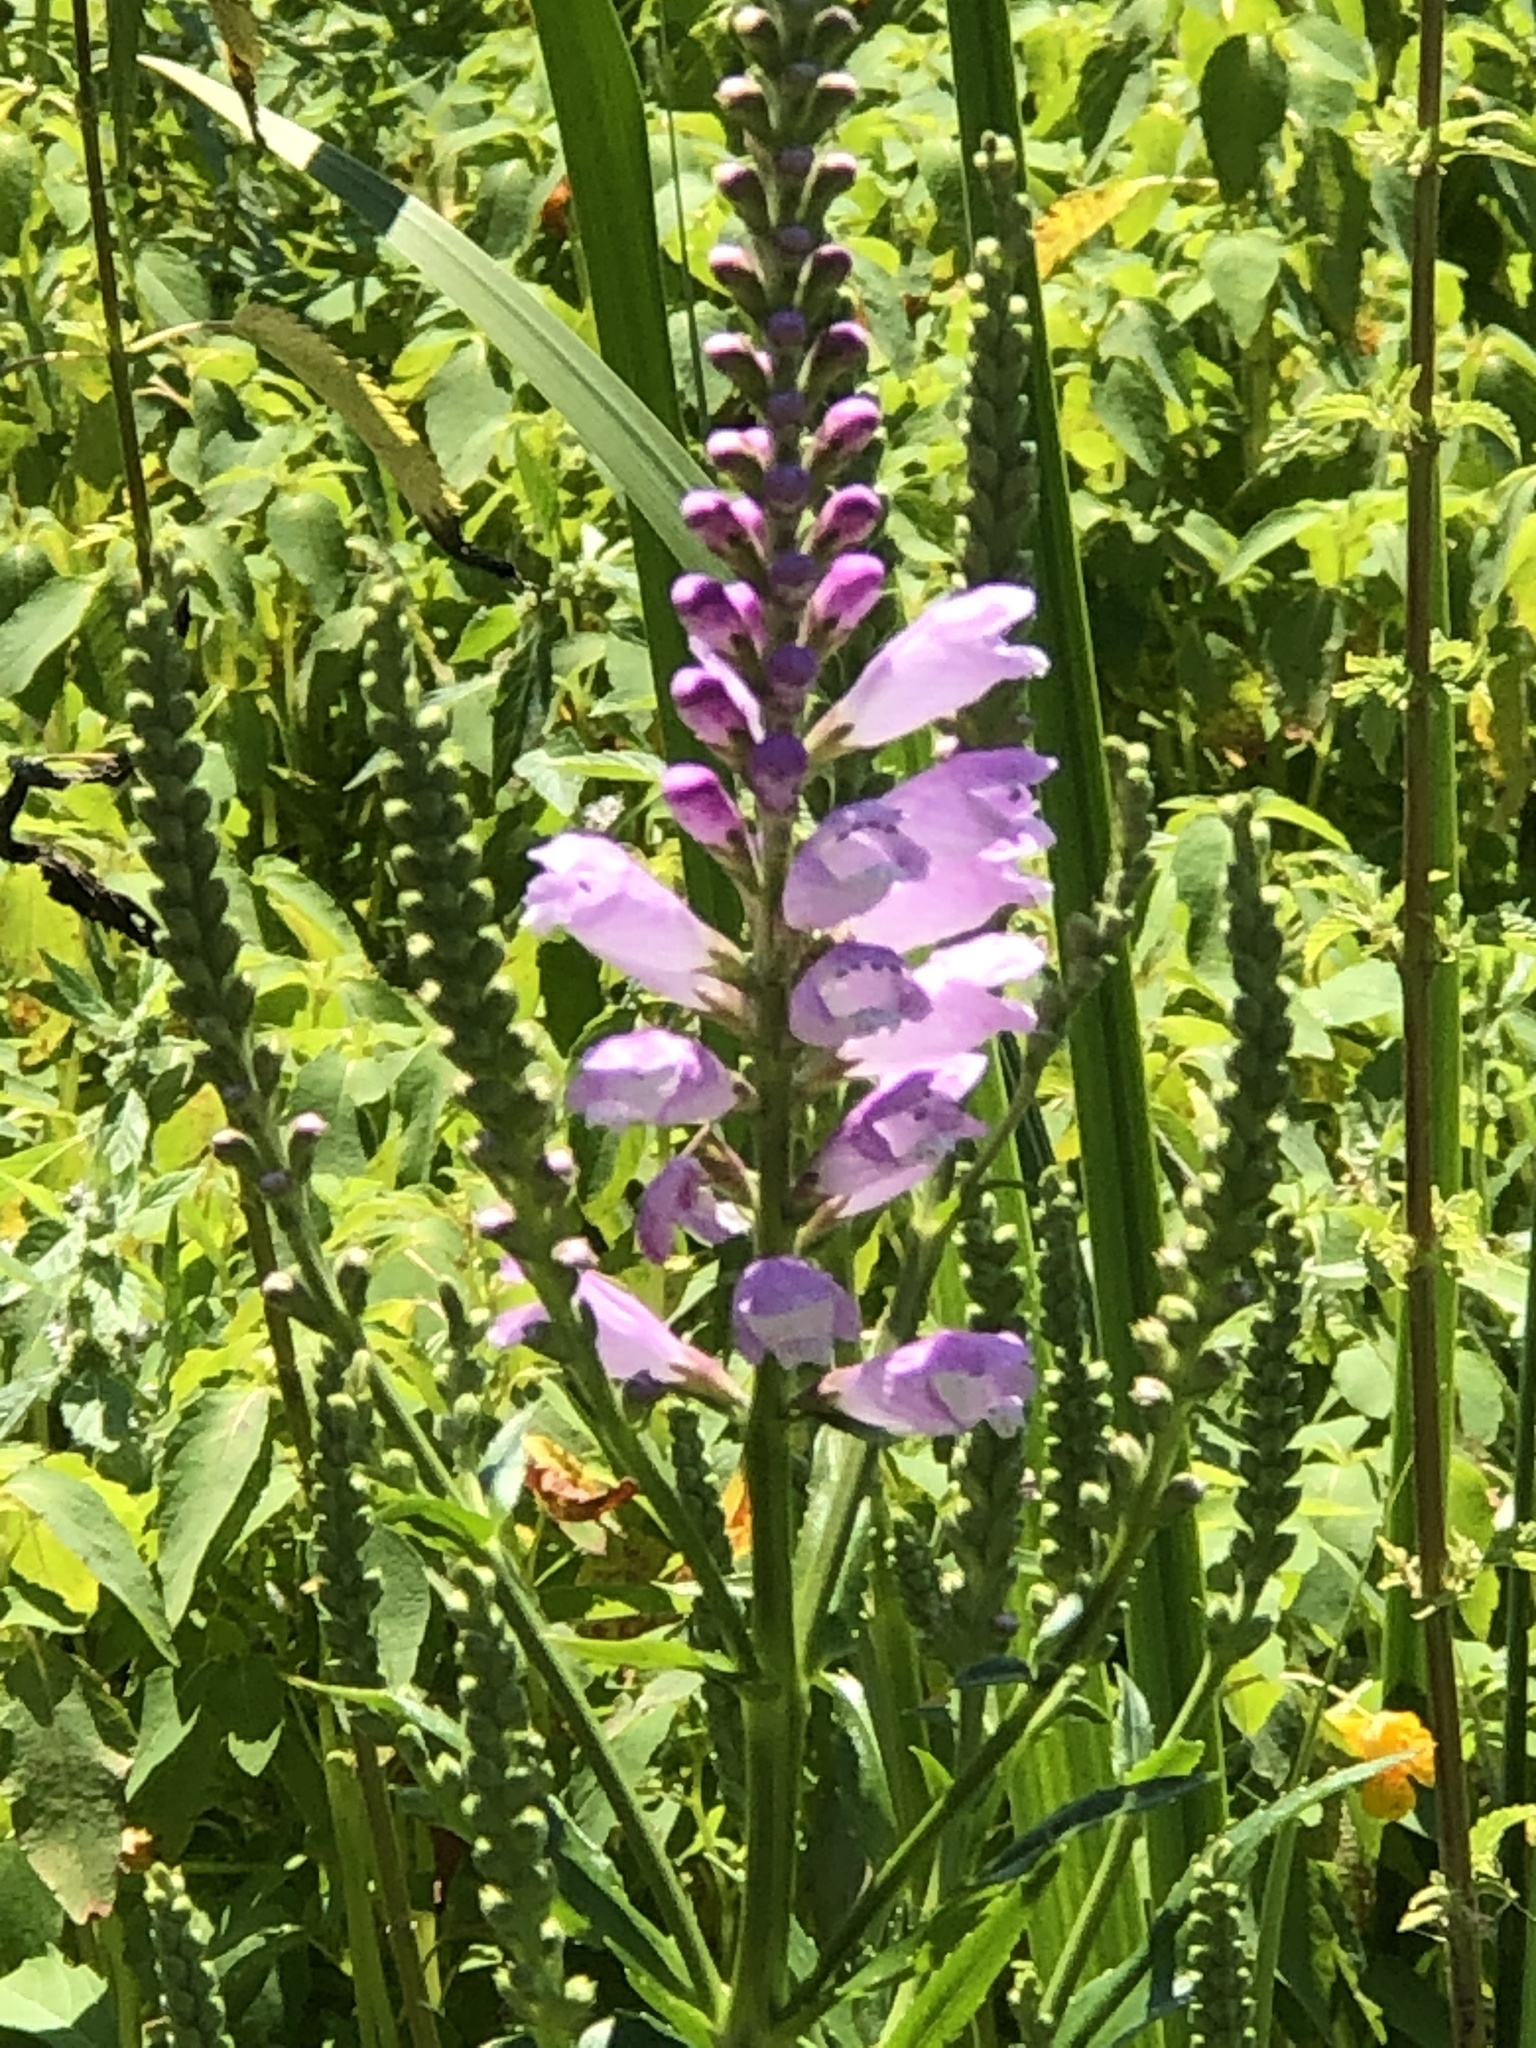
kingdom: Plantae
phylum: Tracheophyta
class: Magnoliopsida
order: Lamiales
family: Lamiaceae
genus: Physostegia
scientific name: Physostegia virginiana
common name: Obedient-plant
